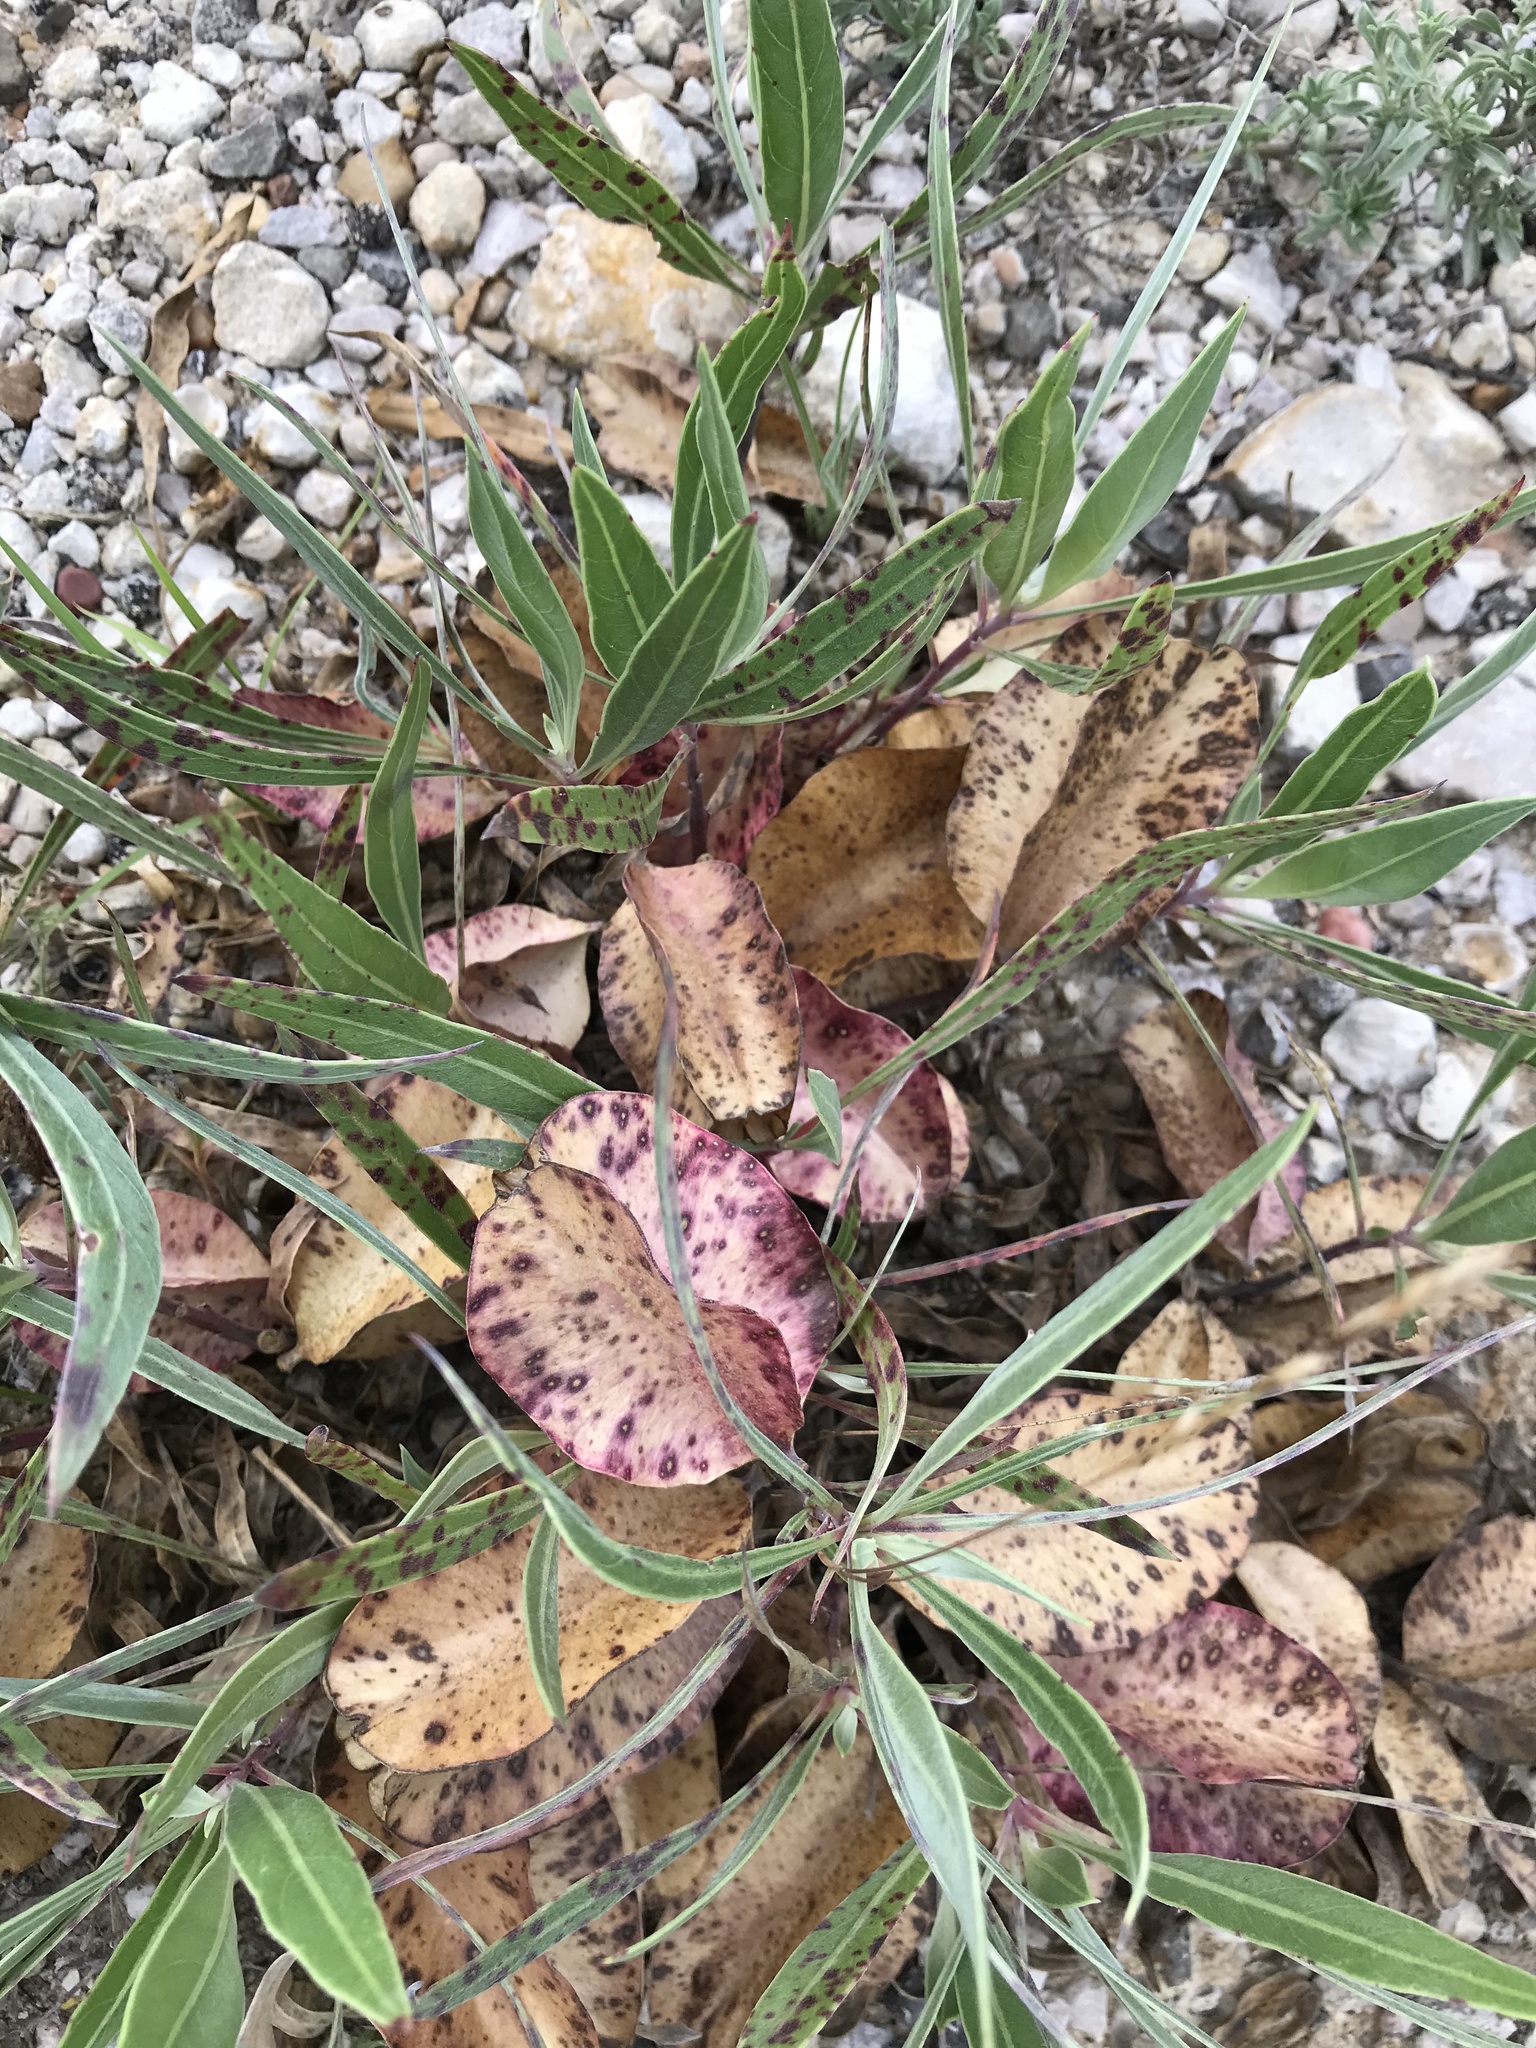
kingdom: Plantae
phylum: Tracheophyta
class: Magnoliopsida
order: Myrtales
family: Onagraceae
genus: Oenothera
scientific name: Oenothera macrocarpa
